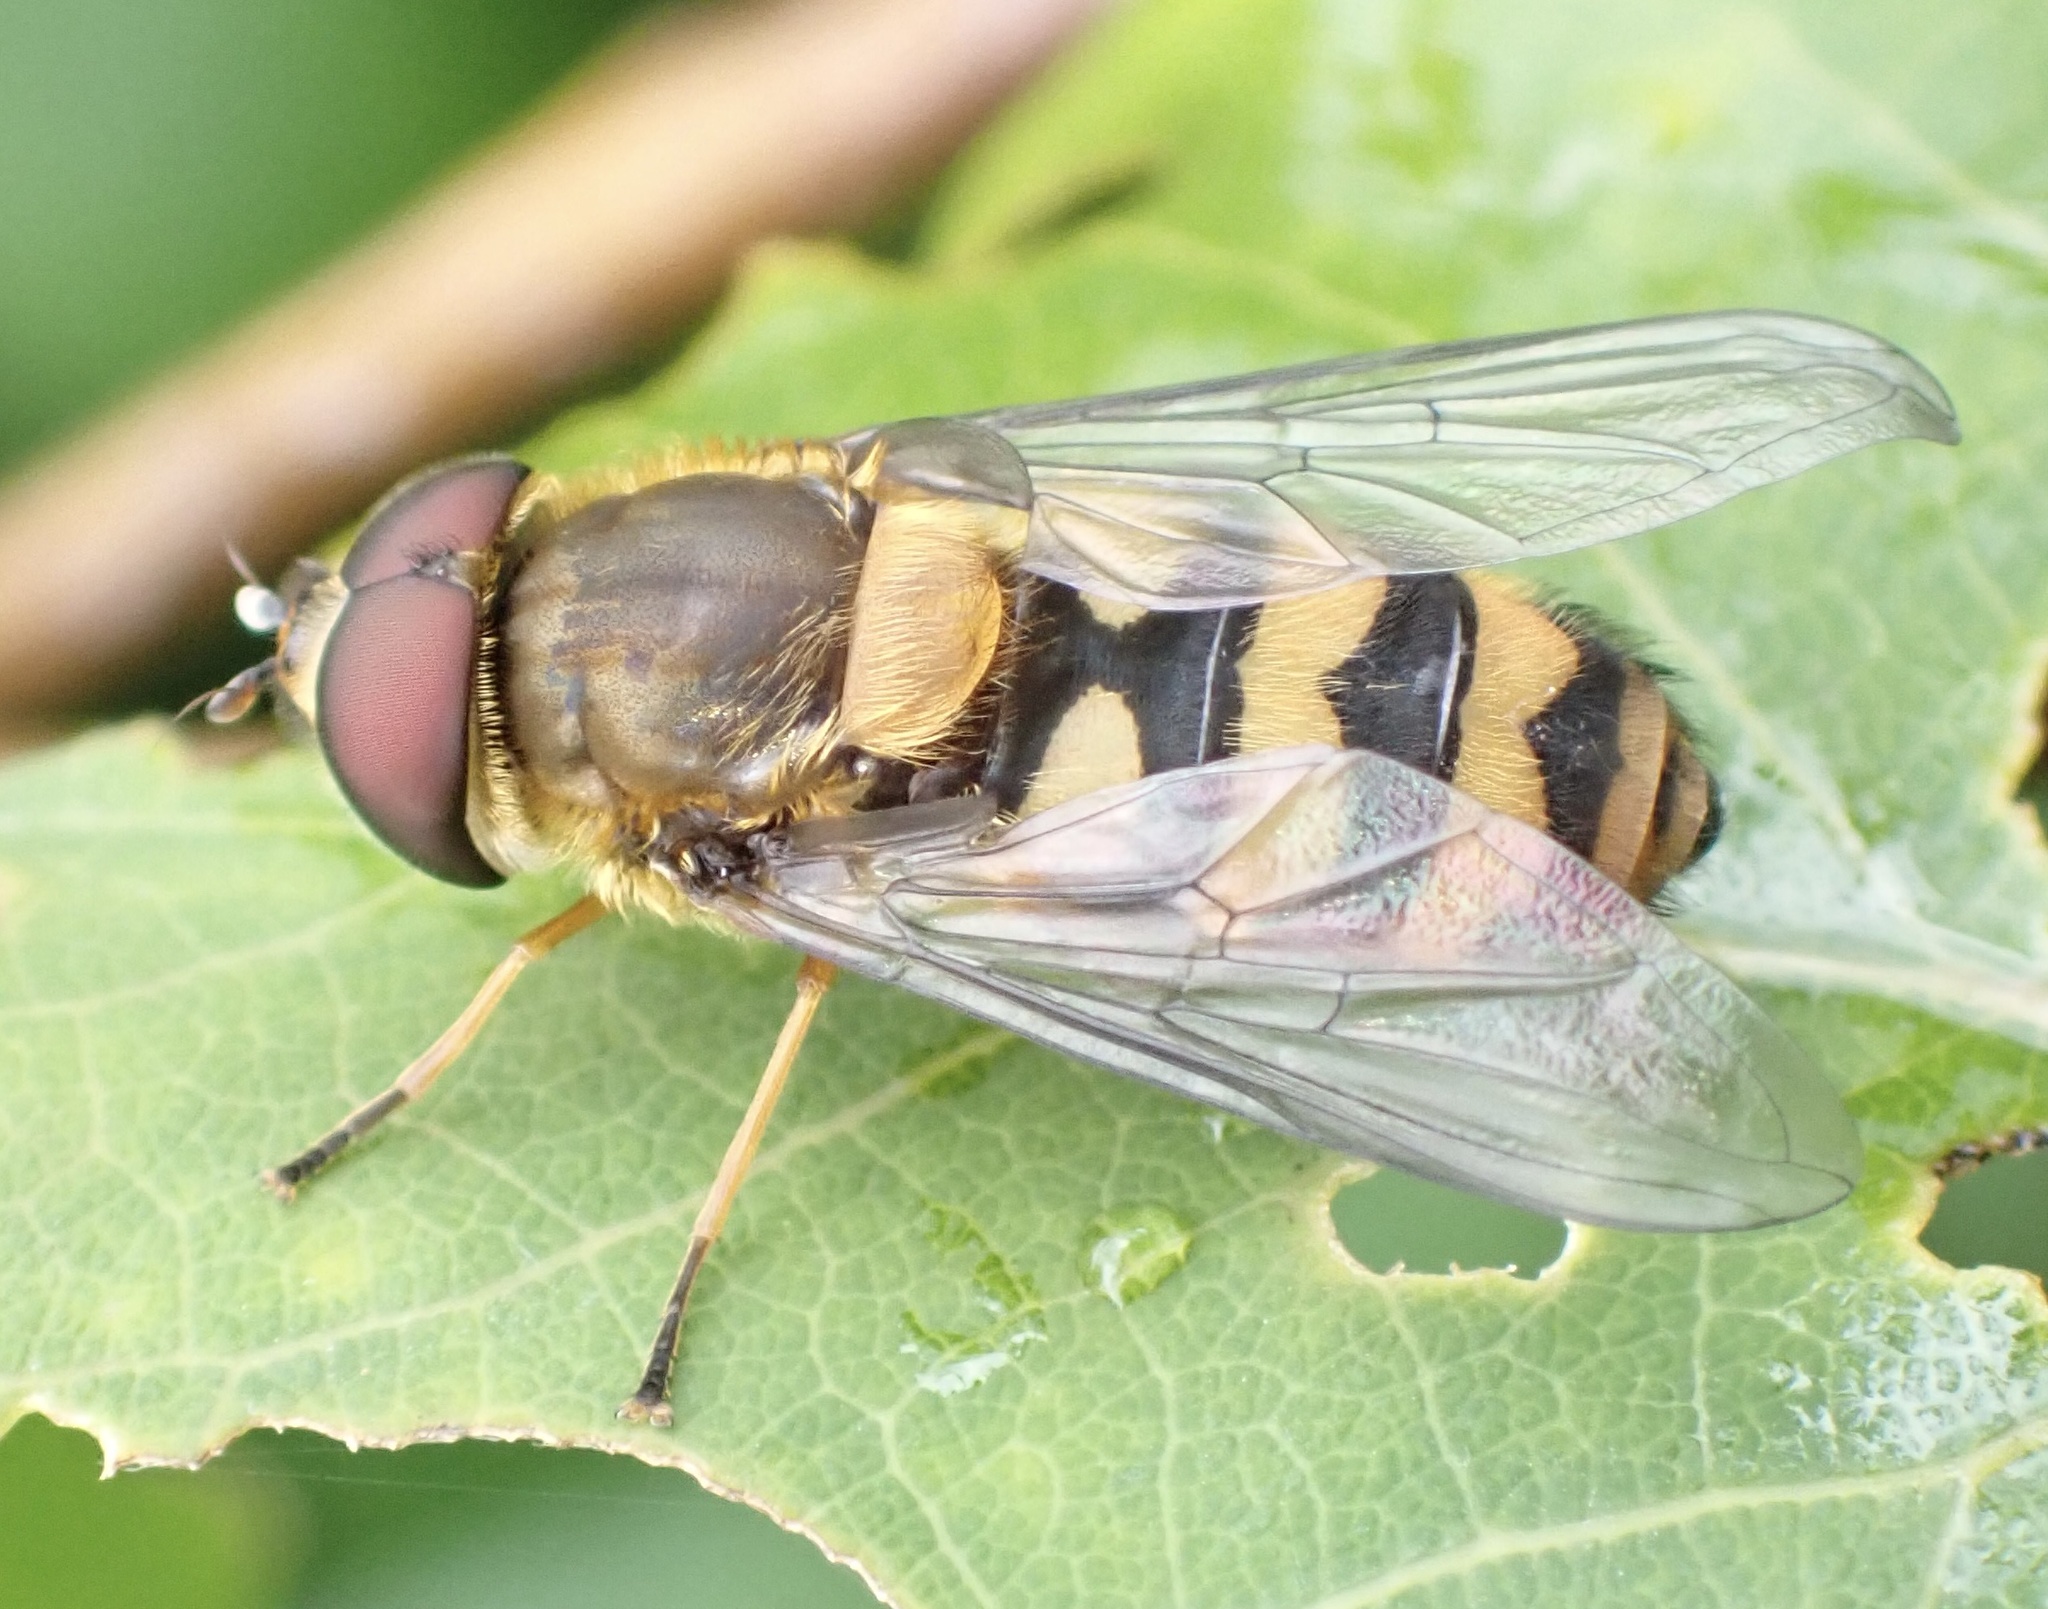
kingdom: Animalia
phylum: Arthropoda
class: Insecta
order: Diptera
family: Syrphidae
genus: Syrphus
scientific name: Syrphus torvus
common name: Hairy-eyed flower fly
